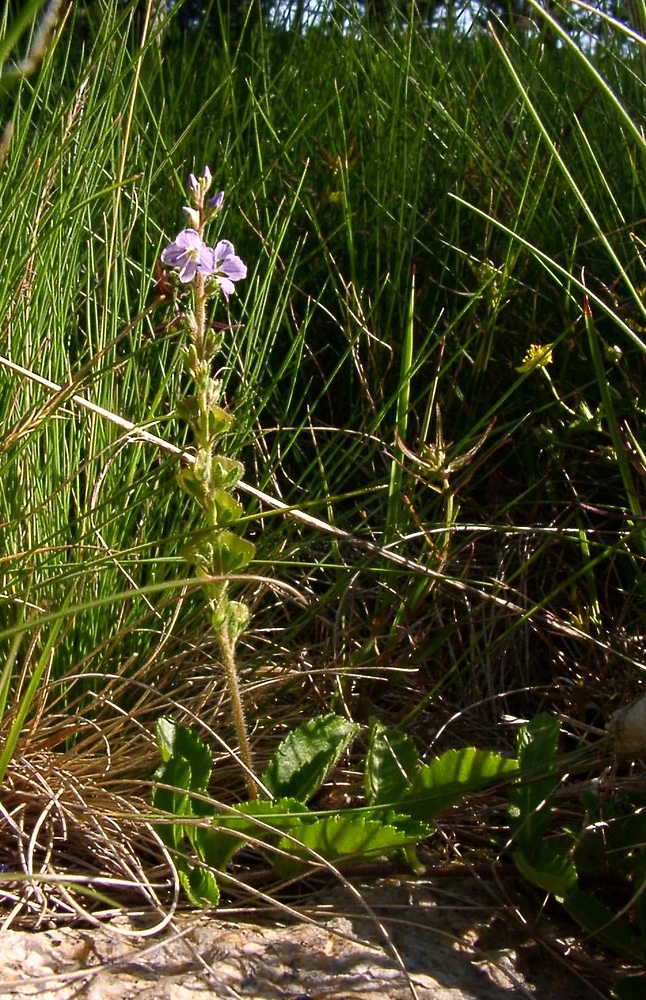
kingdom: Plantae
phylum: Tracheophyta
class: Magnoliopsida
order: Lamiales
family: Plantaginaceae
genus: Veronica
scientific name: Veronica officinalis
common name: Common speedwell
